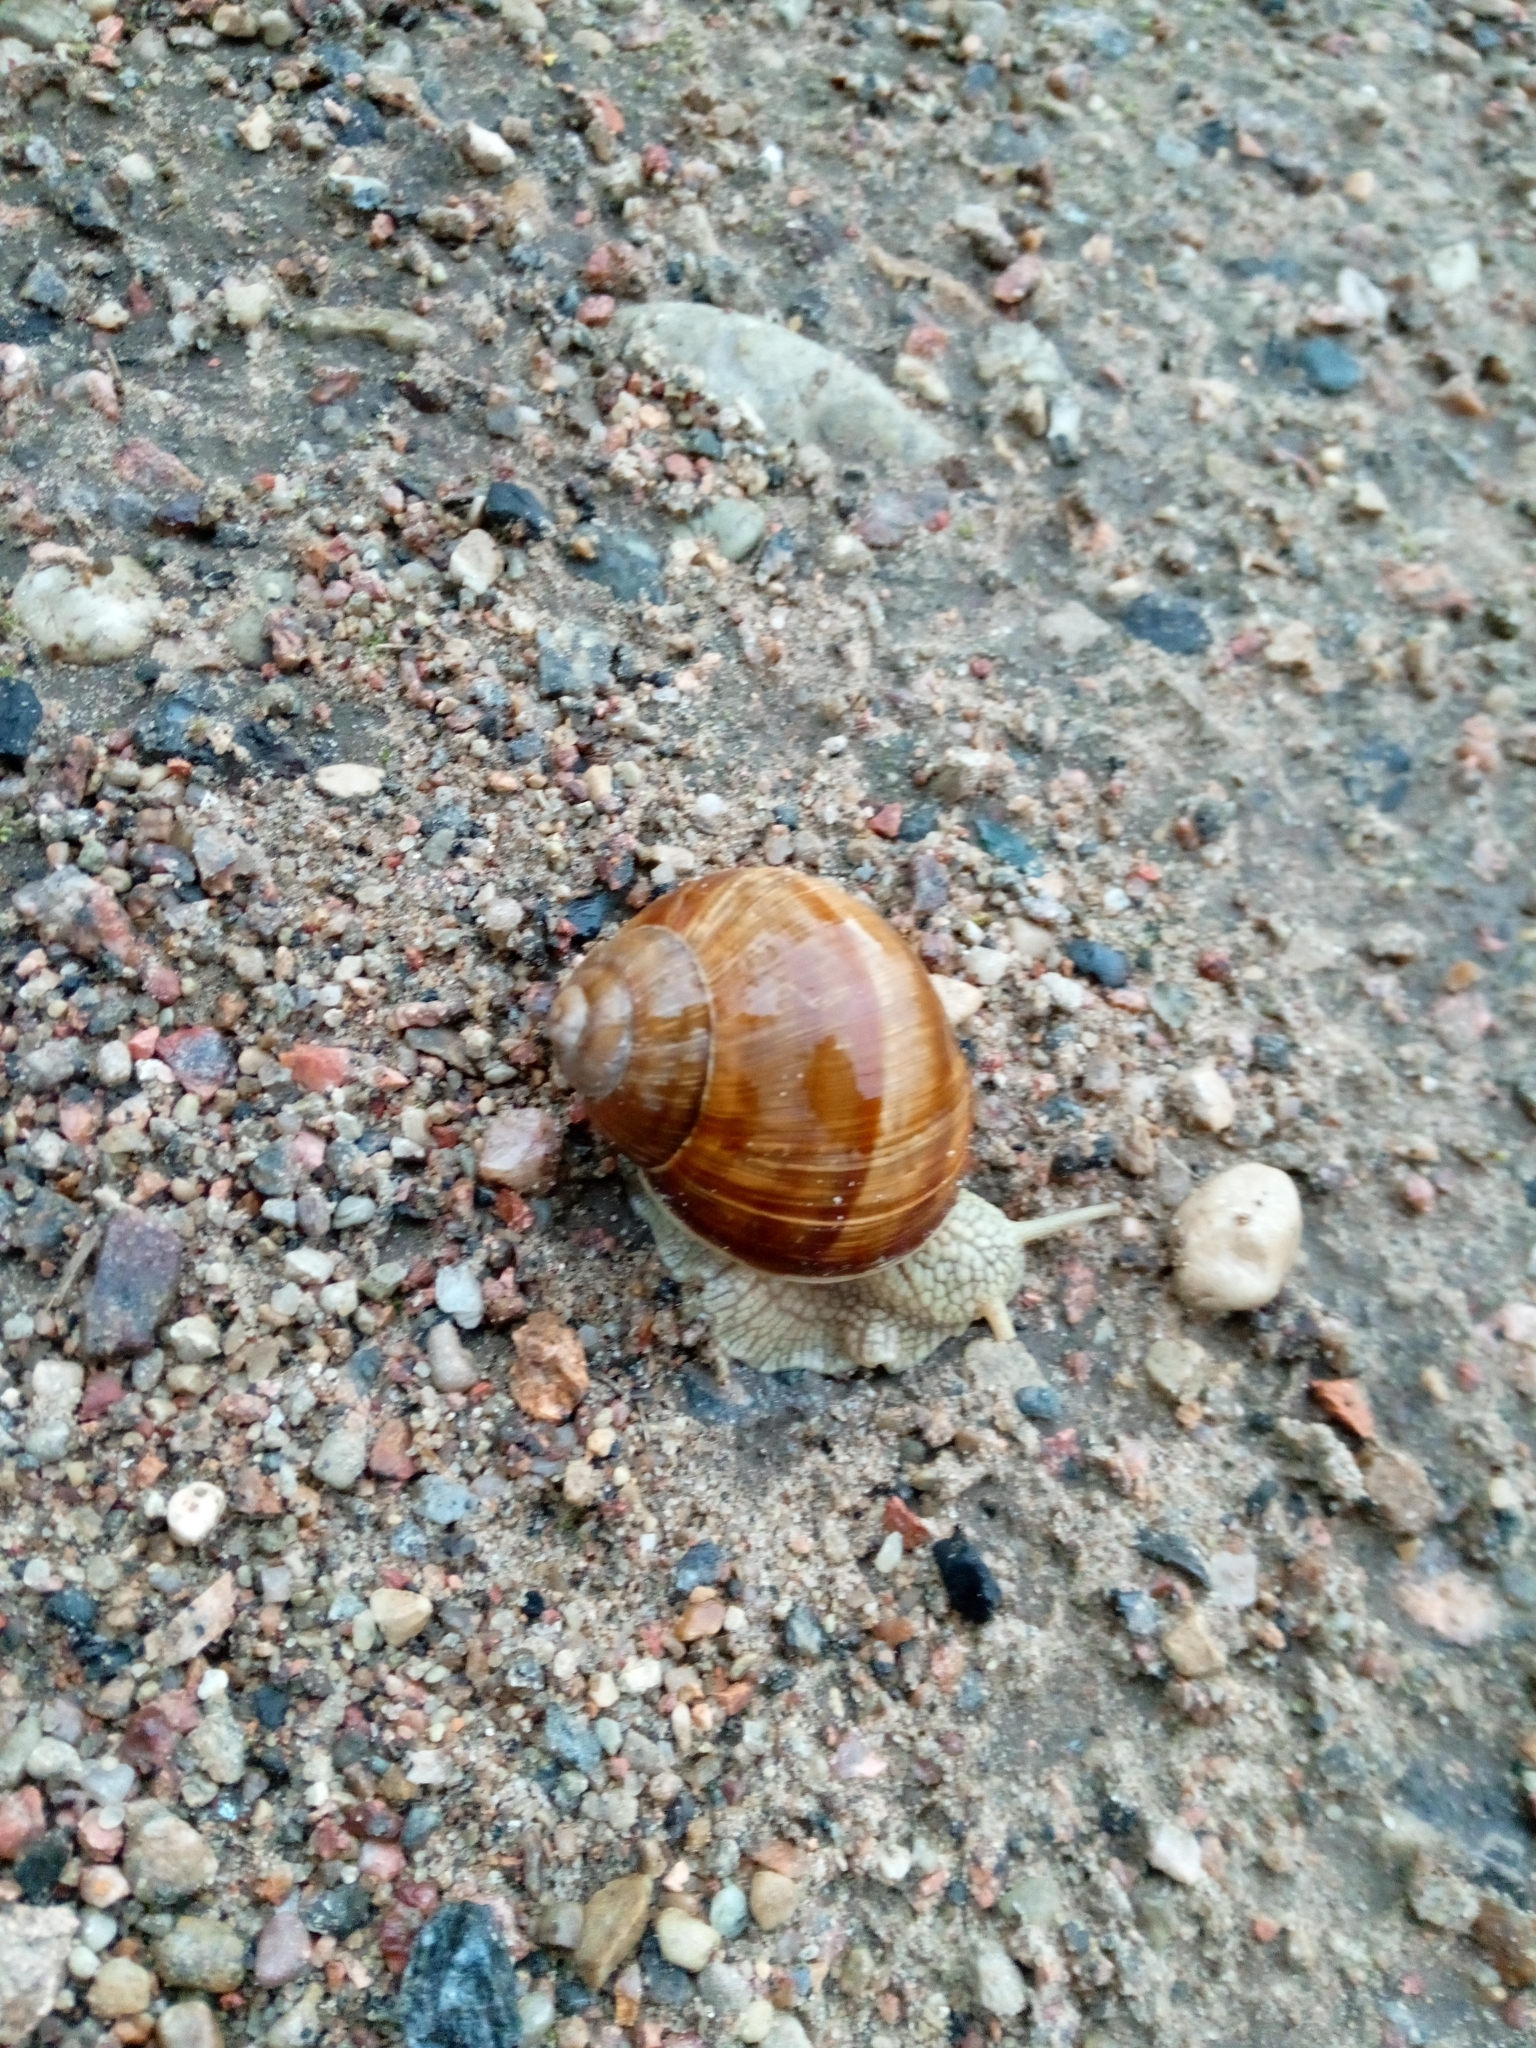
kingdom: Animalia
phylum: Mollusca
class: Gastropoda
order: Stylommatophora
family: Helicidae
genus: Helix
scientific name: Helix pomatia
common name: Roman snail
